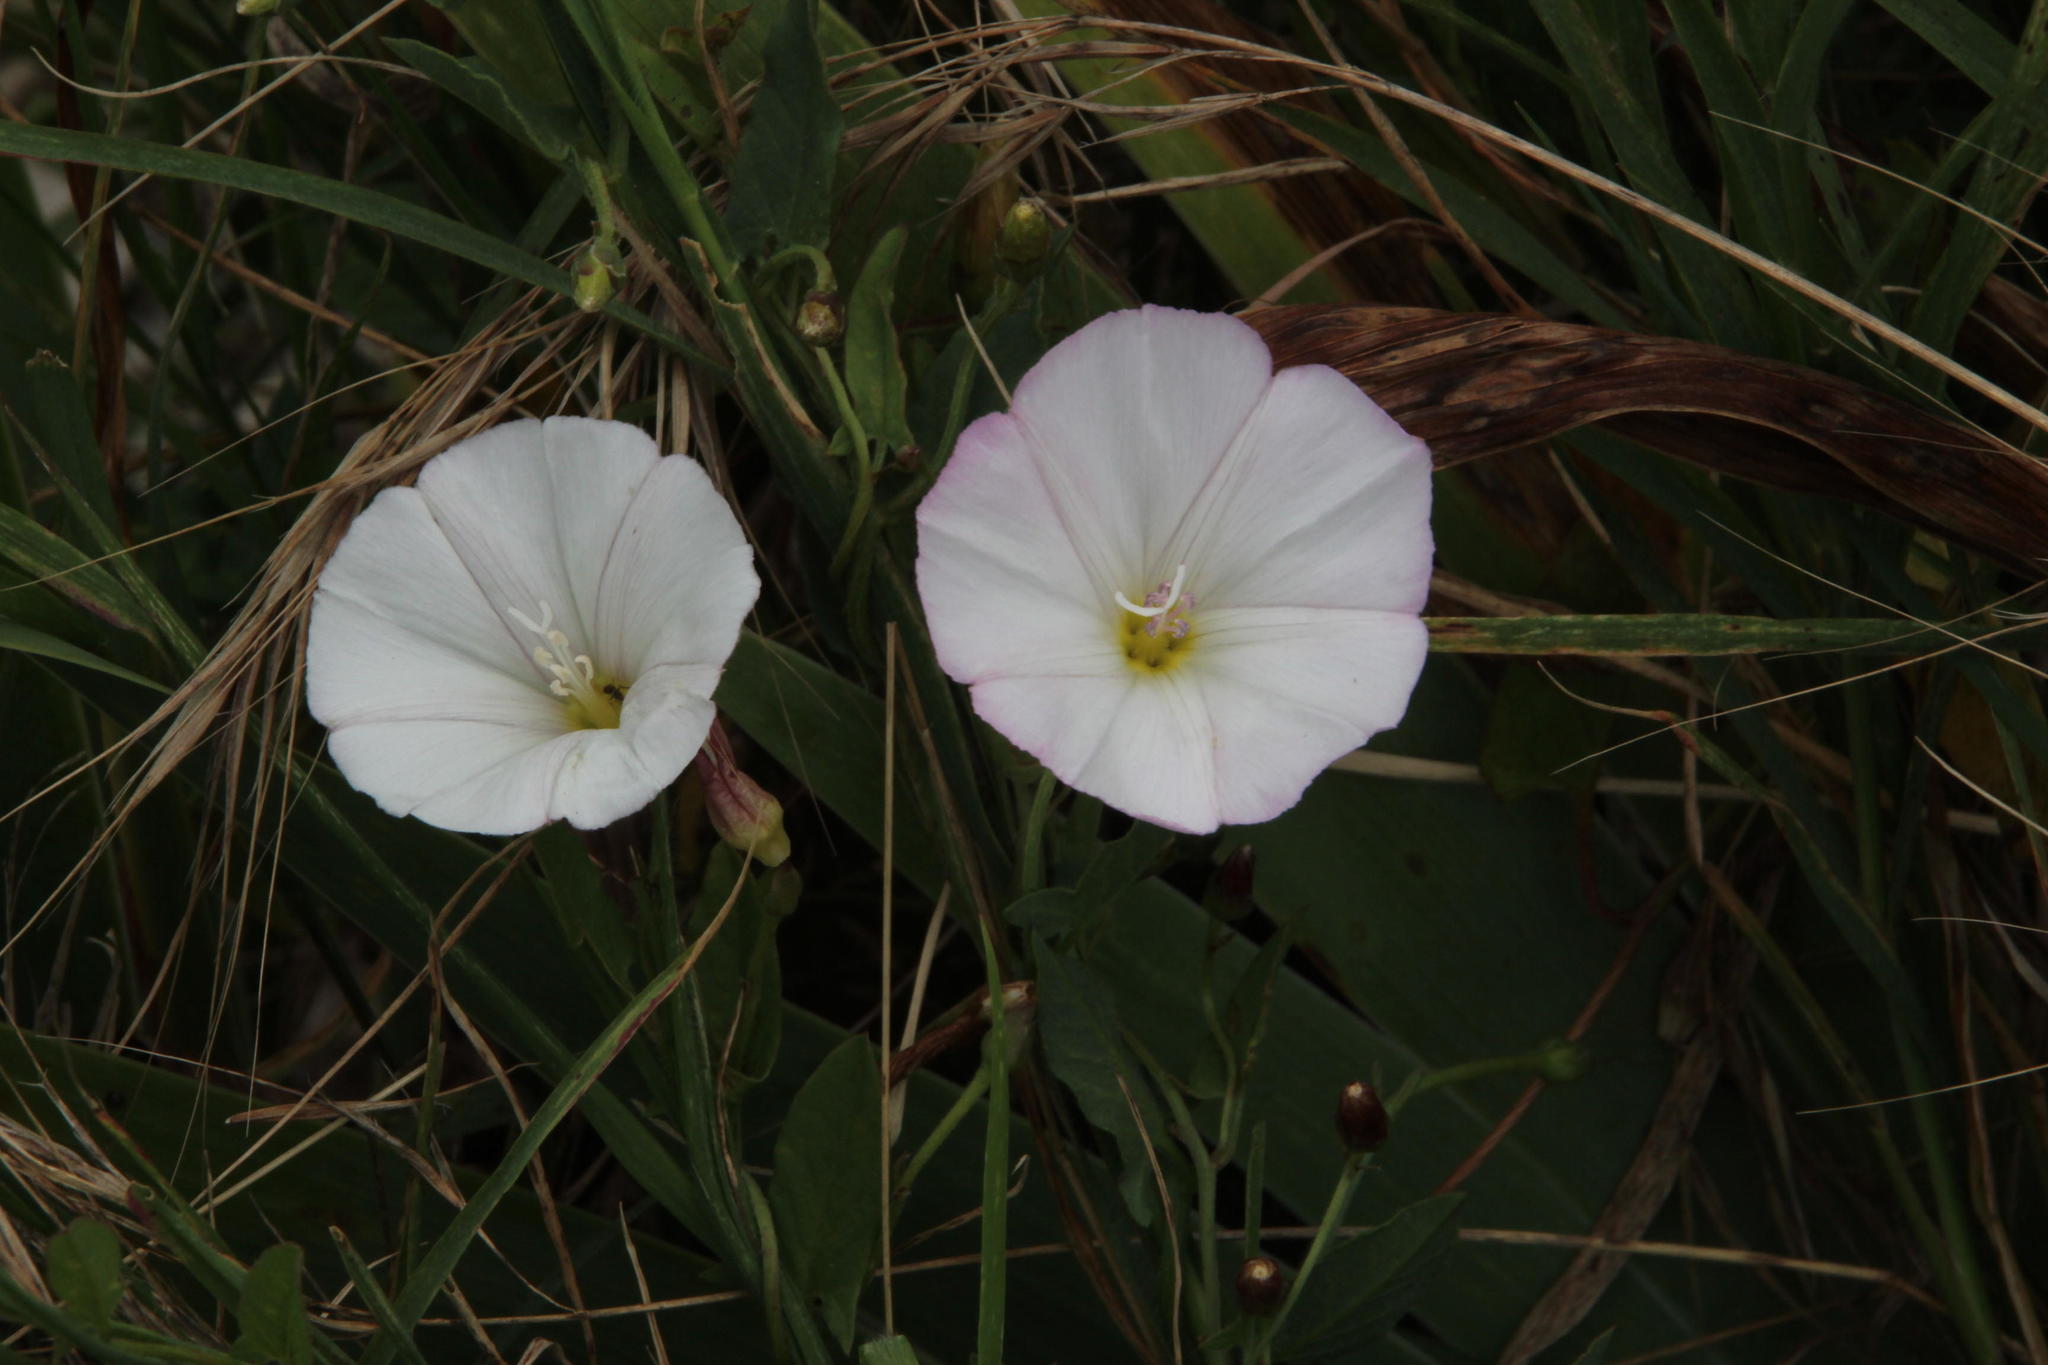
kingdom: Plantae
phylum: Tracheophyta
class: Magnoliopsida
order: Solanales
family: Convolvulaceae
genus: Convolvulus
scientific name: Convolvulus arvensis
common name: Field bindweed
